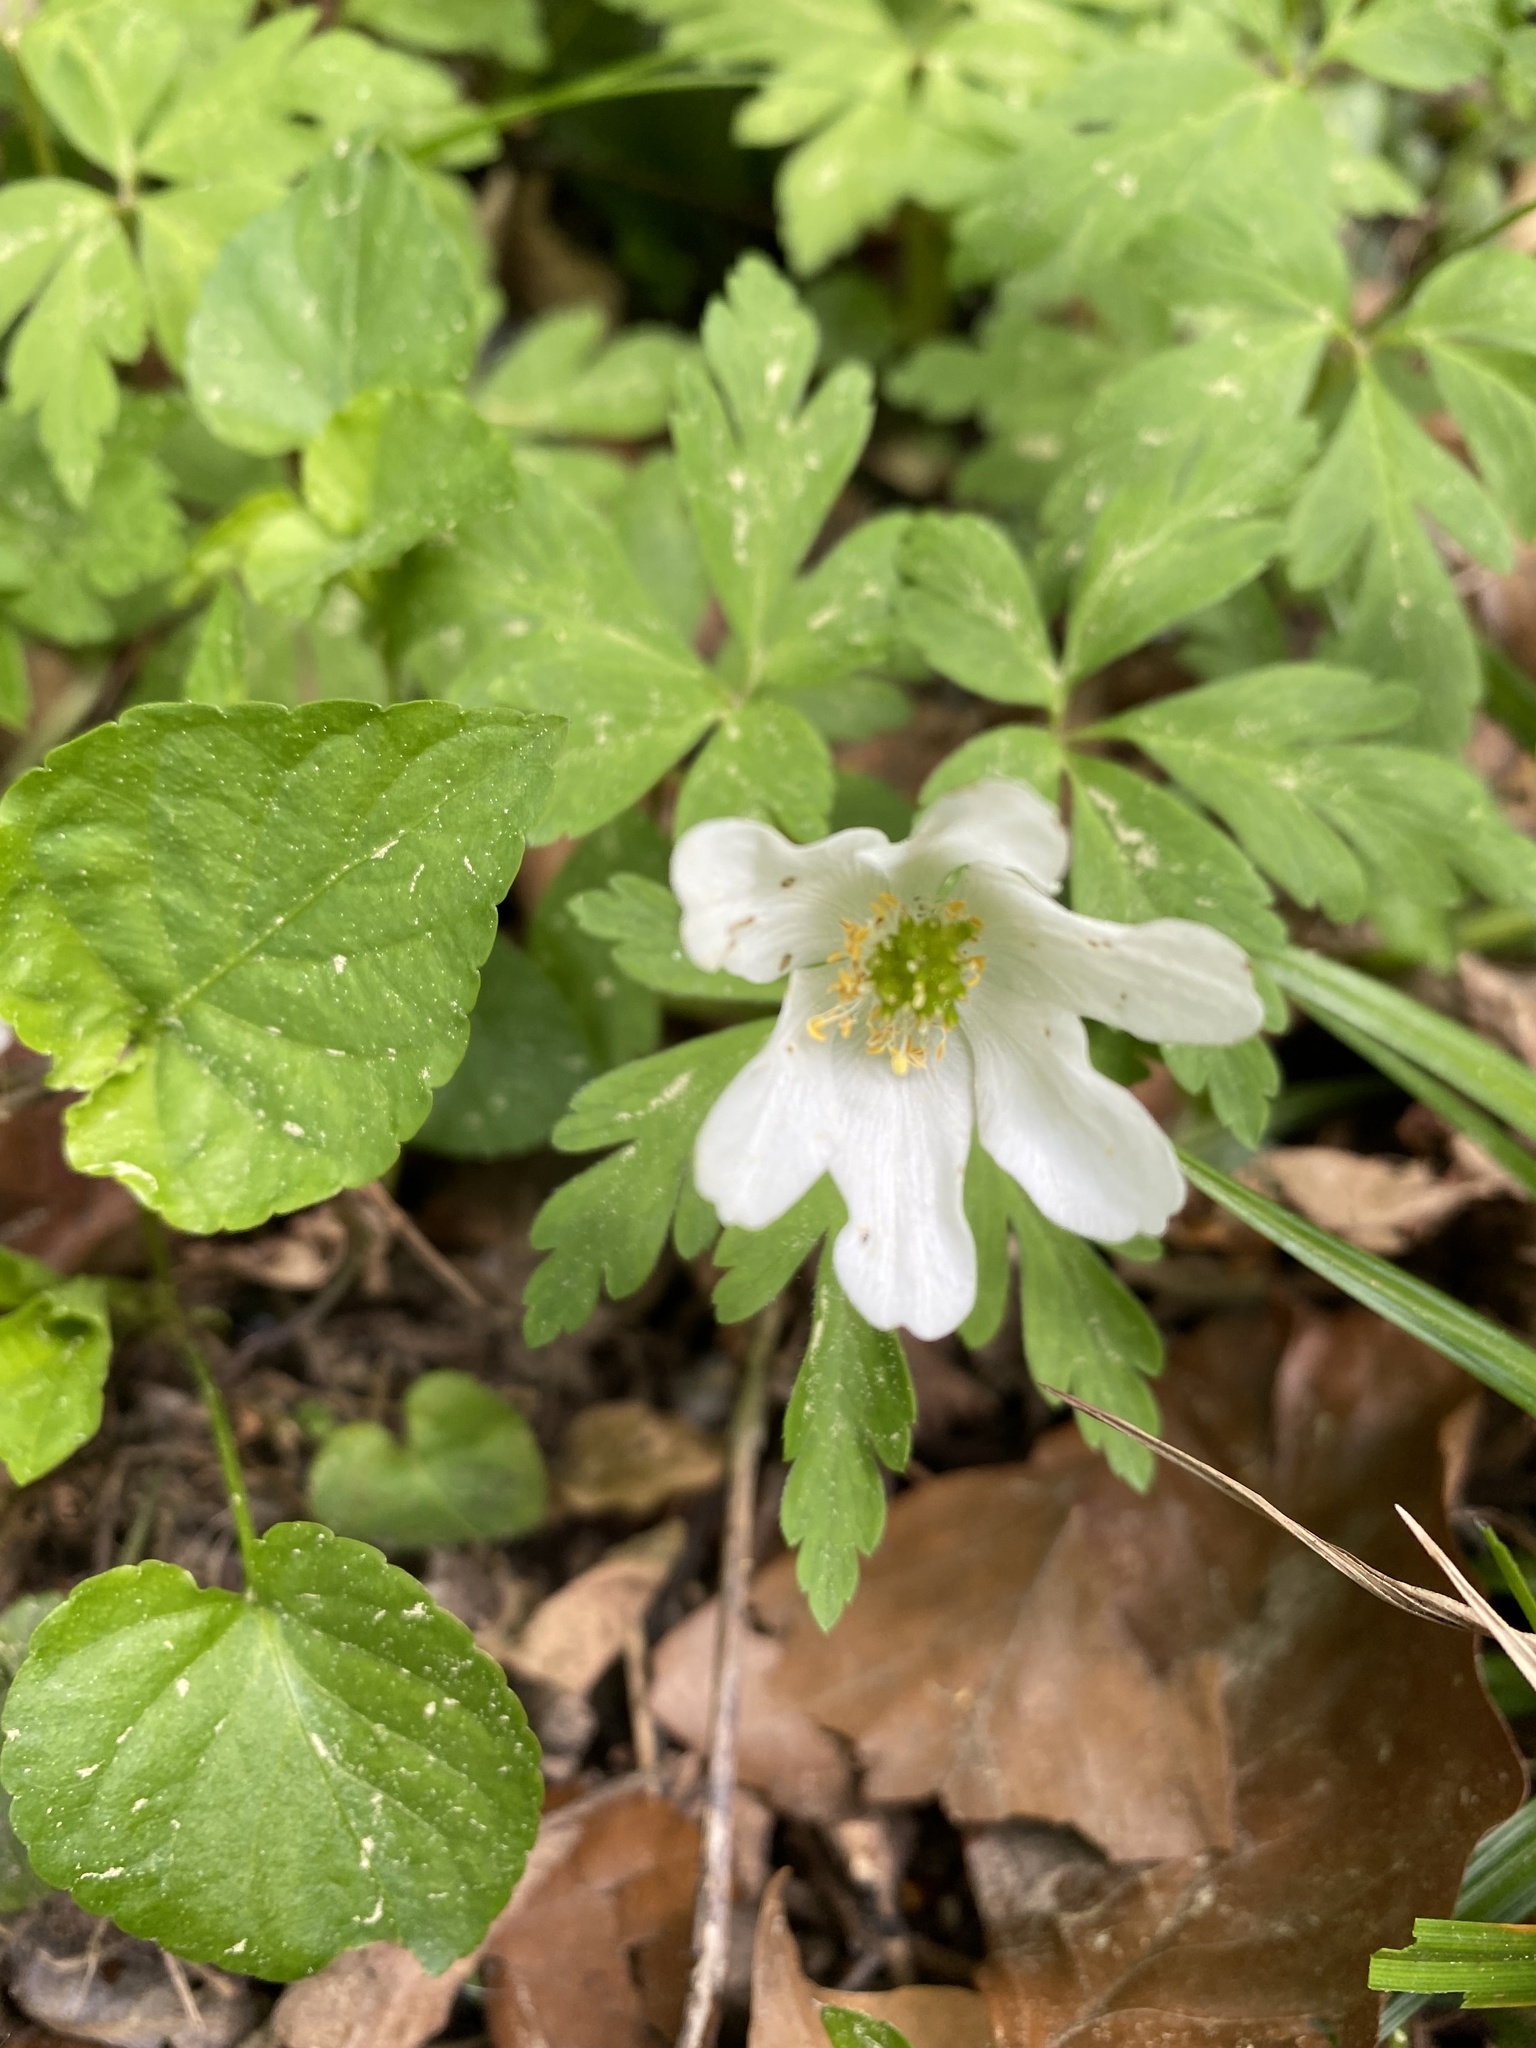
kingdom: Plantae
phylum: Tracheophyta
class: Magnoliopsida
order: Ranunculales
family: Ranunculaceae
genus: Anemone
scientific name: Anemone nemorosa
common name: Wood anemone
